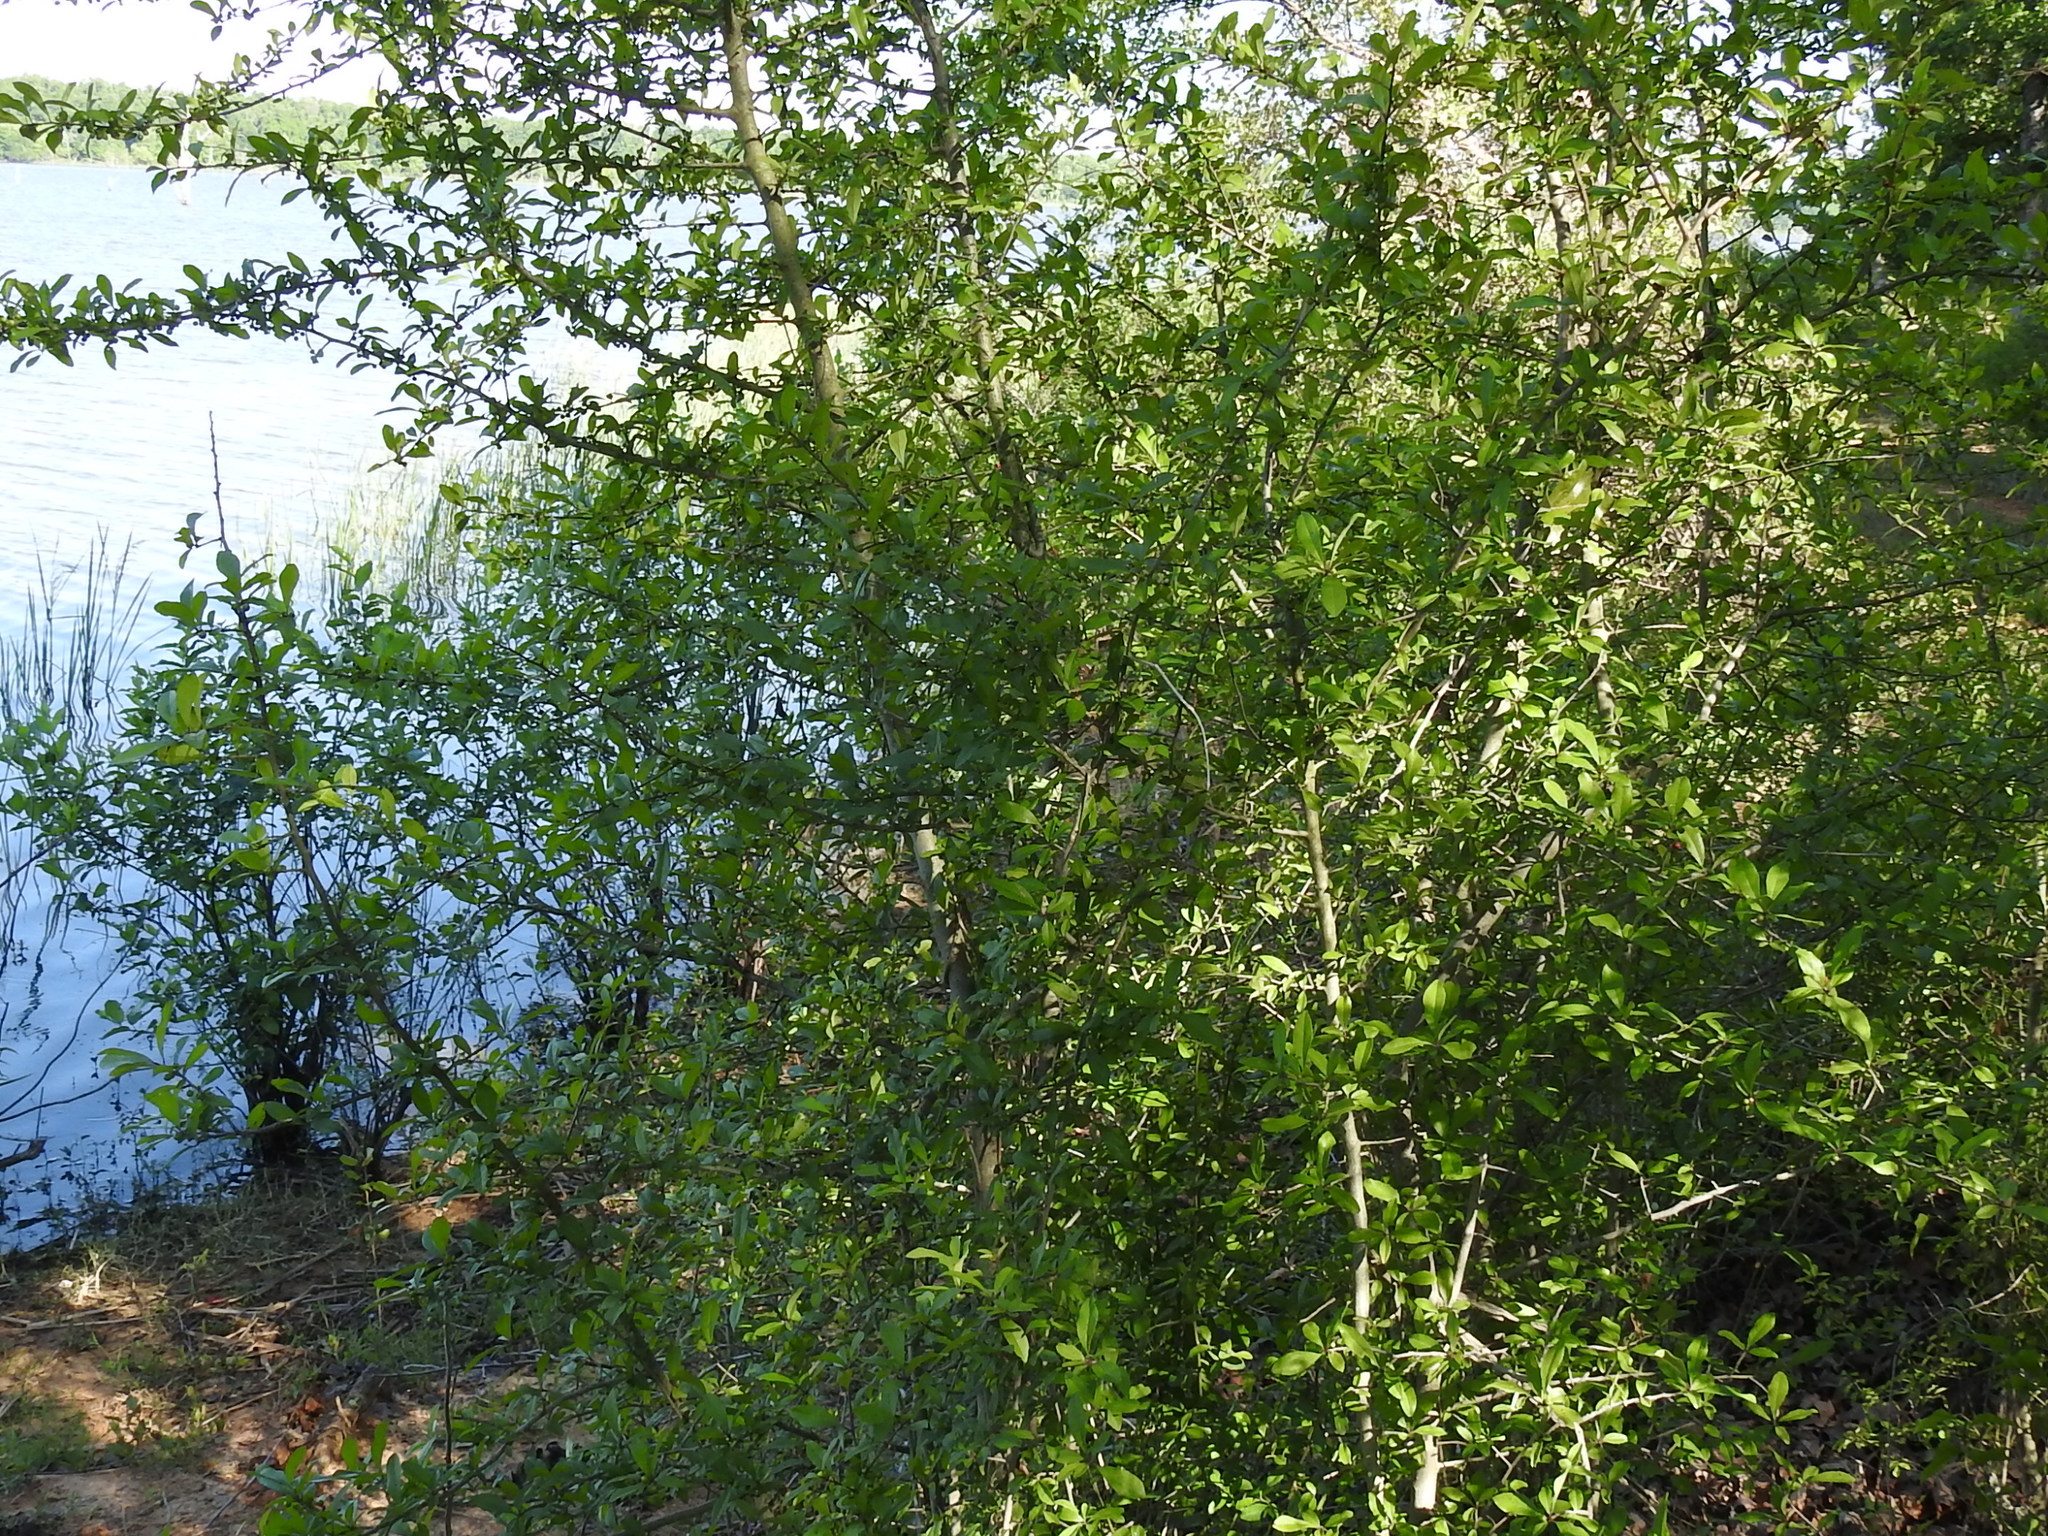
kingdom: Plantae
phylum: Tracheophyta
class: Magnoliopsida
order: Aquifoliales
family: Aquifoliaceae
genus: Ilex
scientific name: Ilex decidua
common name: Possum-haw
